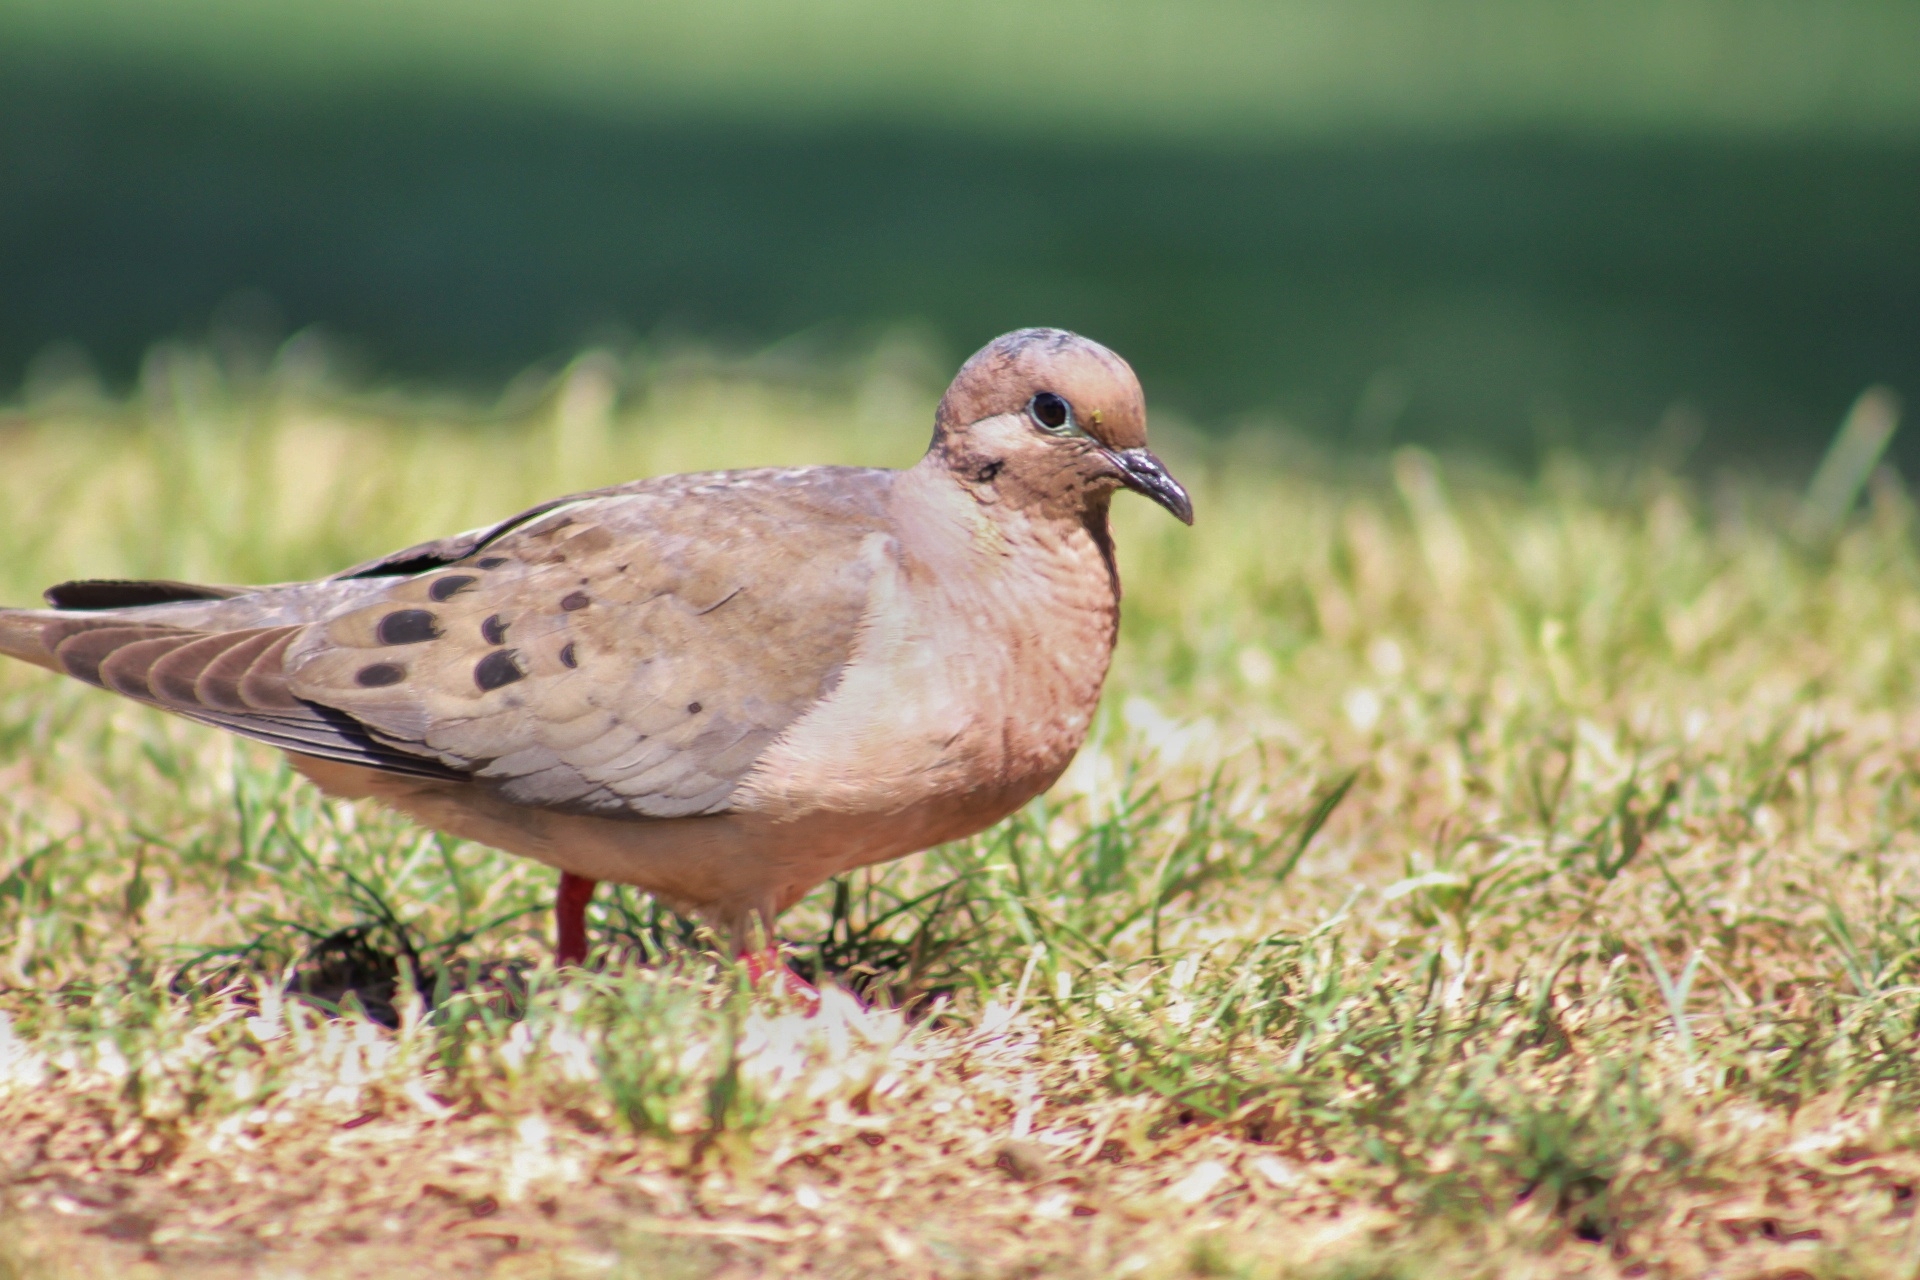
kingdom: Animalia
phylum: Chordata
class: Aves
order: Columbiformes
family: Columbidae
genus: Zenaida
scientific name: Zenaida auriculata
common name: Eared dove
